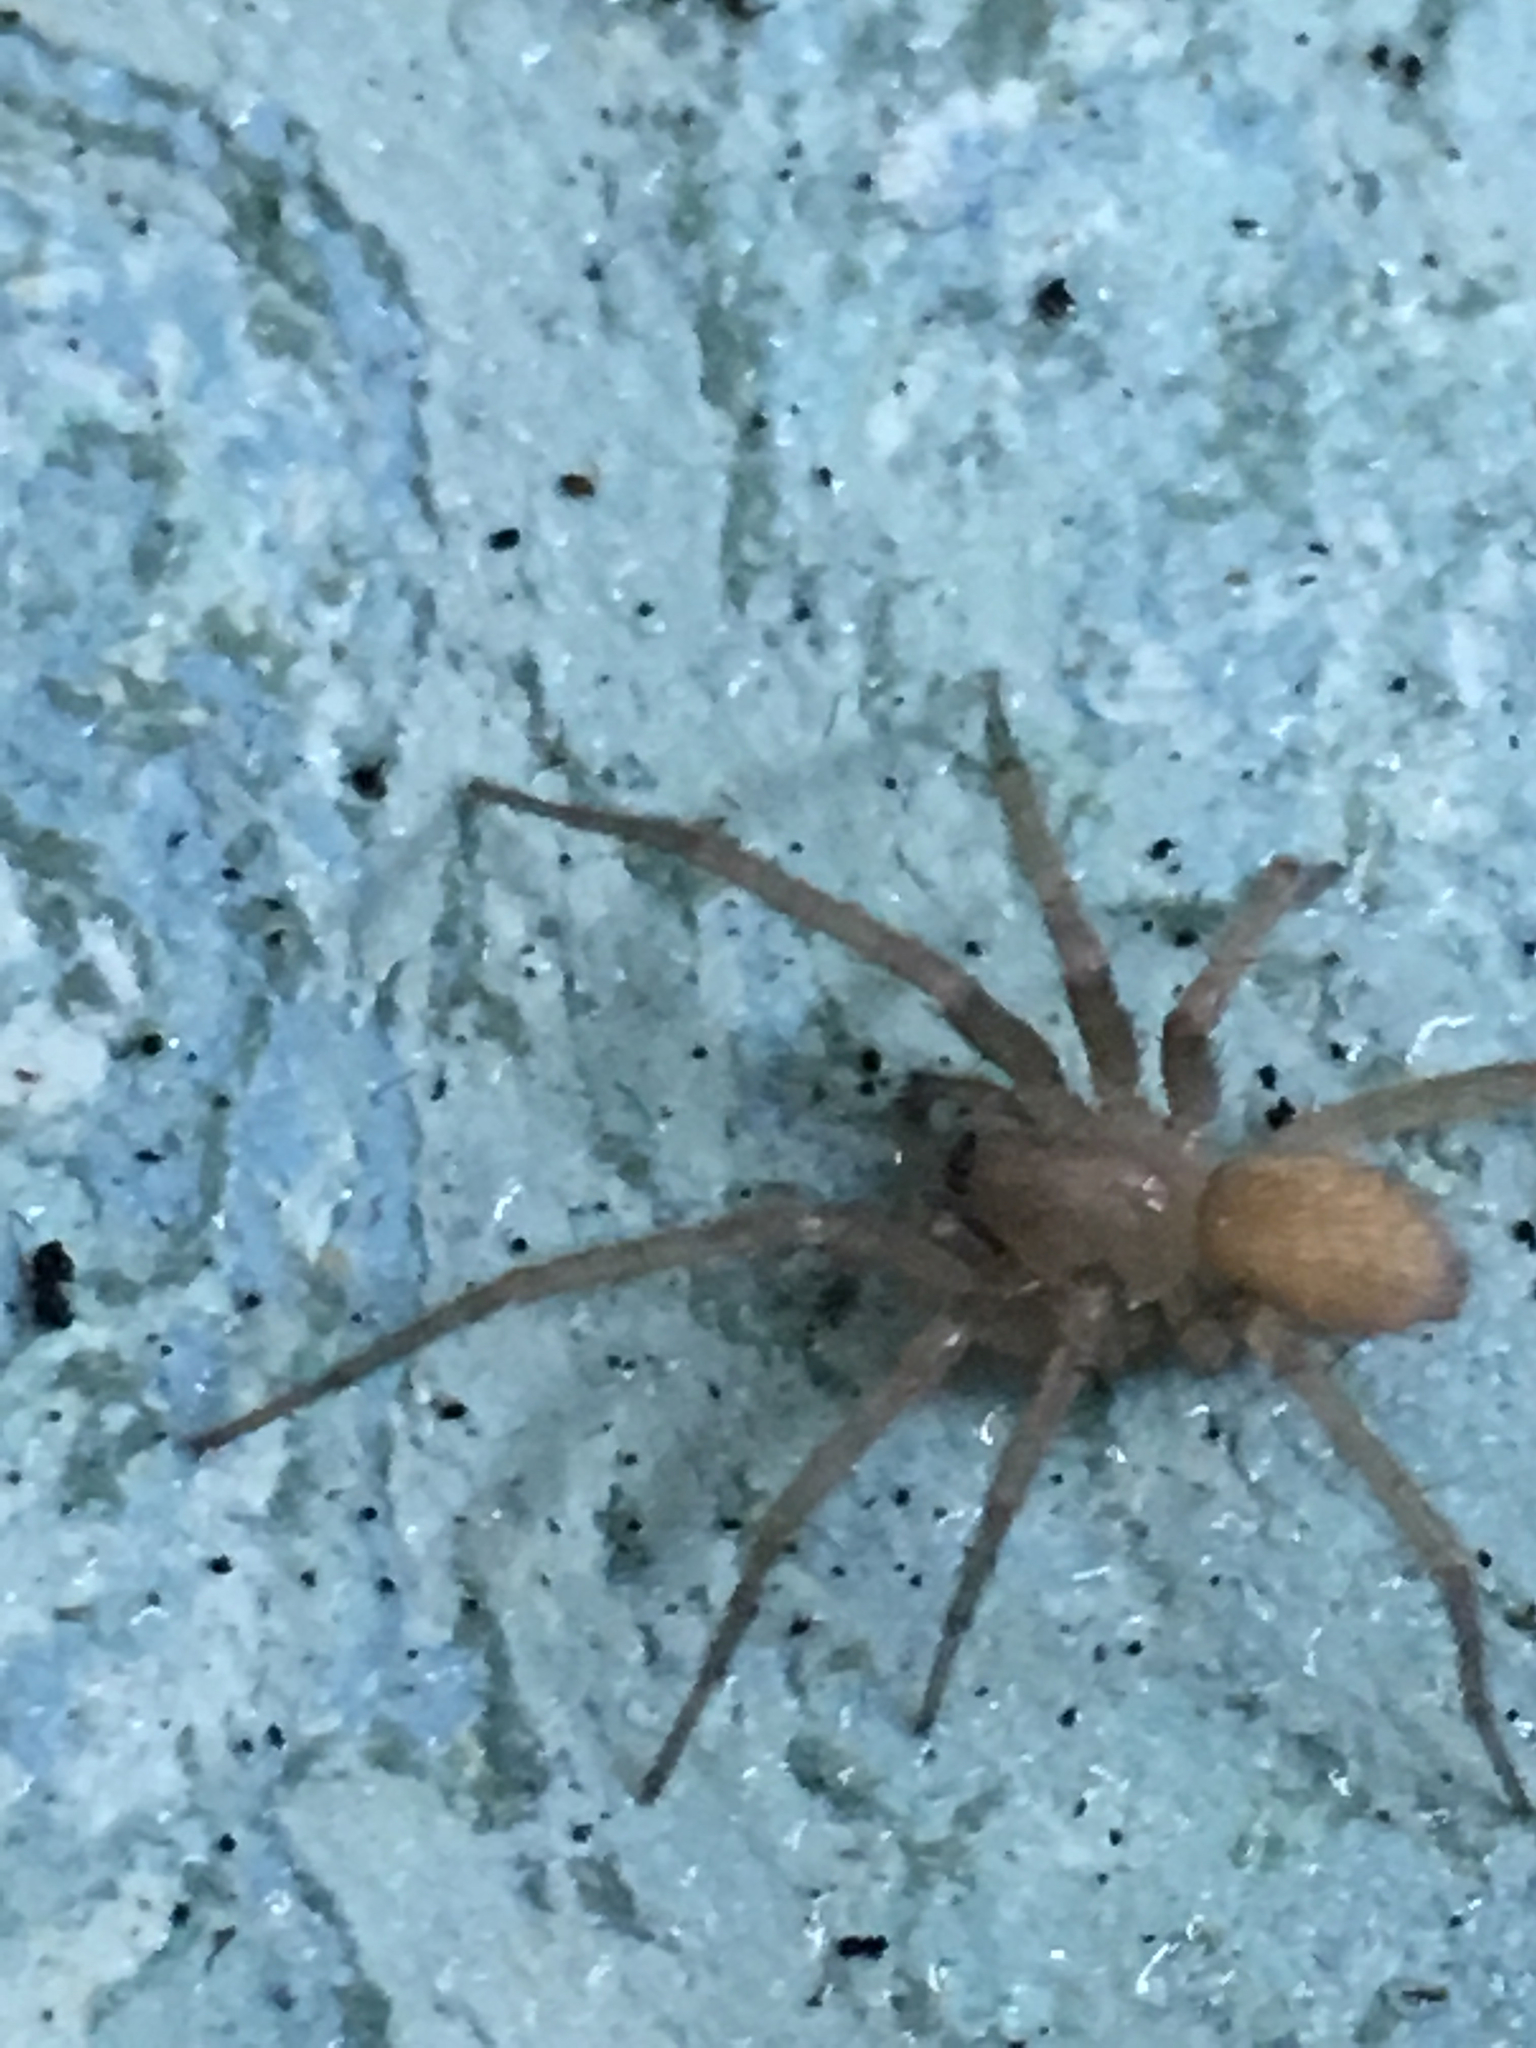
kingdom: Animalia
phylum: Arthropoda
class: Arachnida
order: Araneae
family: Agelenidae
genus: Tegenaria
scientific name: Tegenaria domestica
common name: Barn funnel weaver
